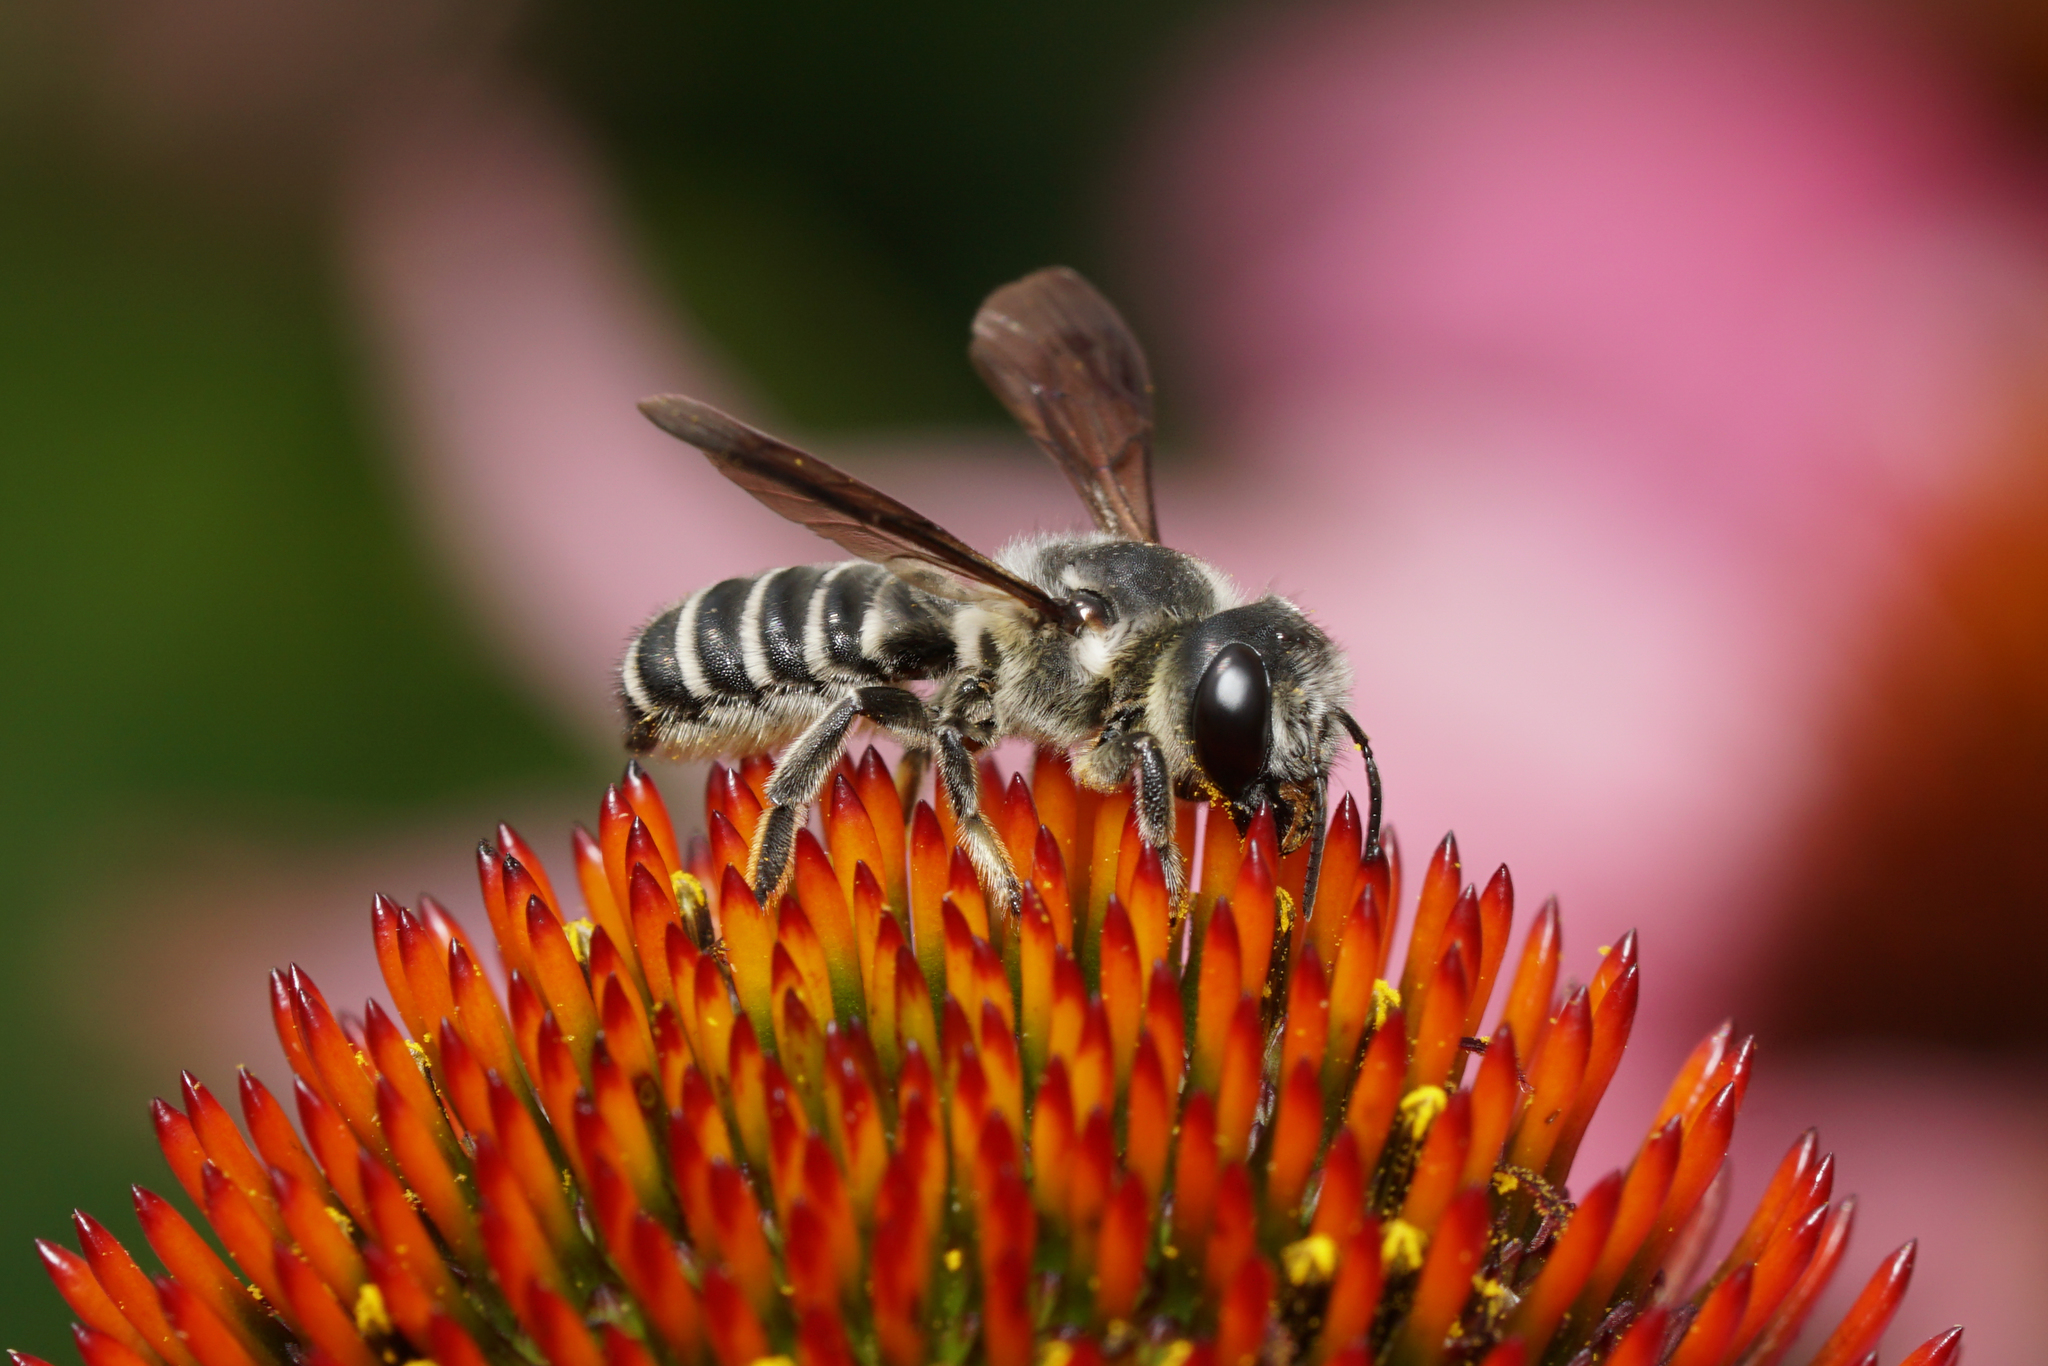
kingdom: Animalia
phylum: Arthropoda
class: Insecta
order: Hymenoptera
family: Megachilidae
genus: Megachile
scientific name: Megachile frugalis
